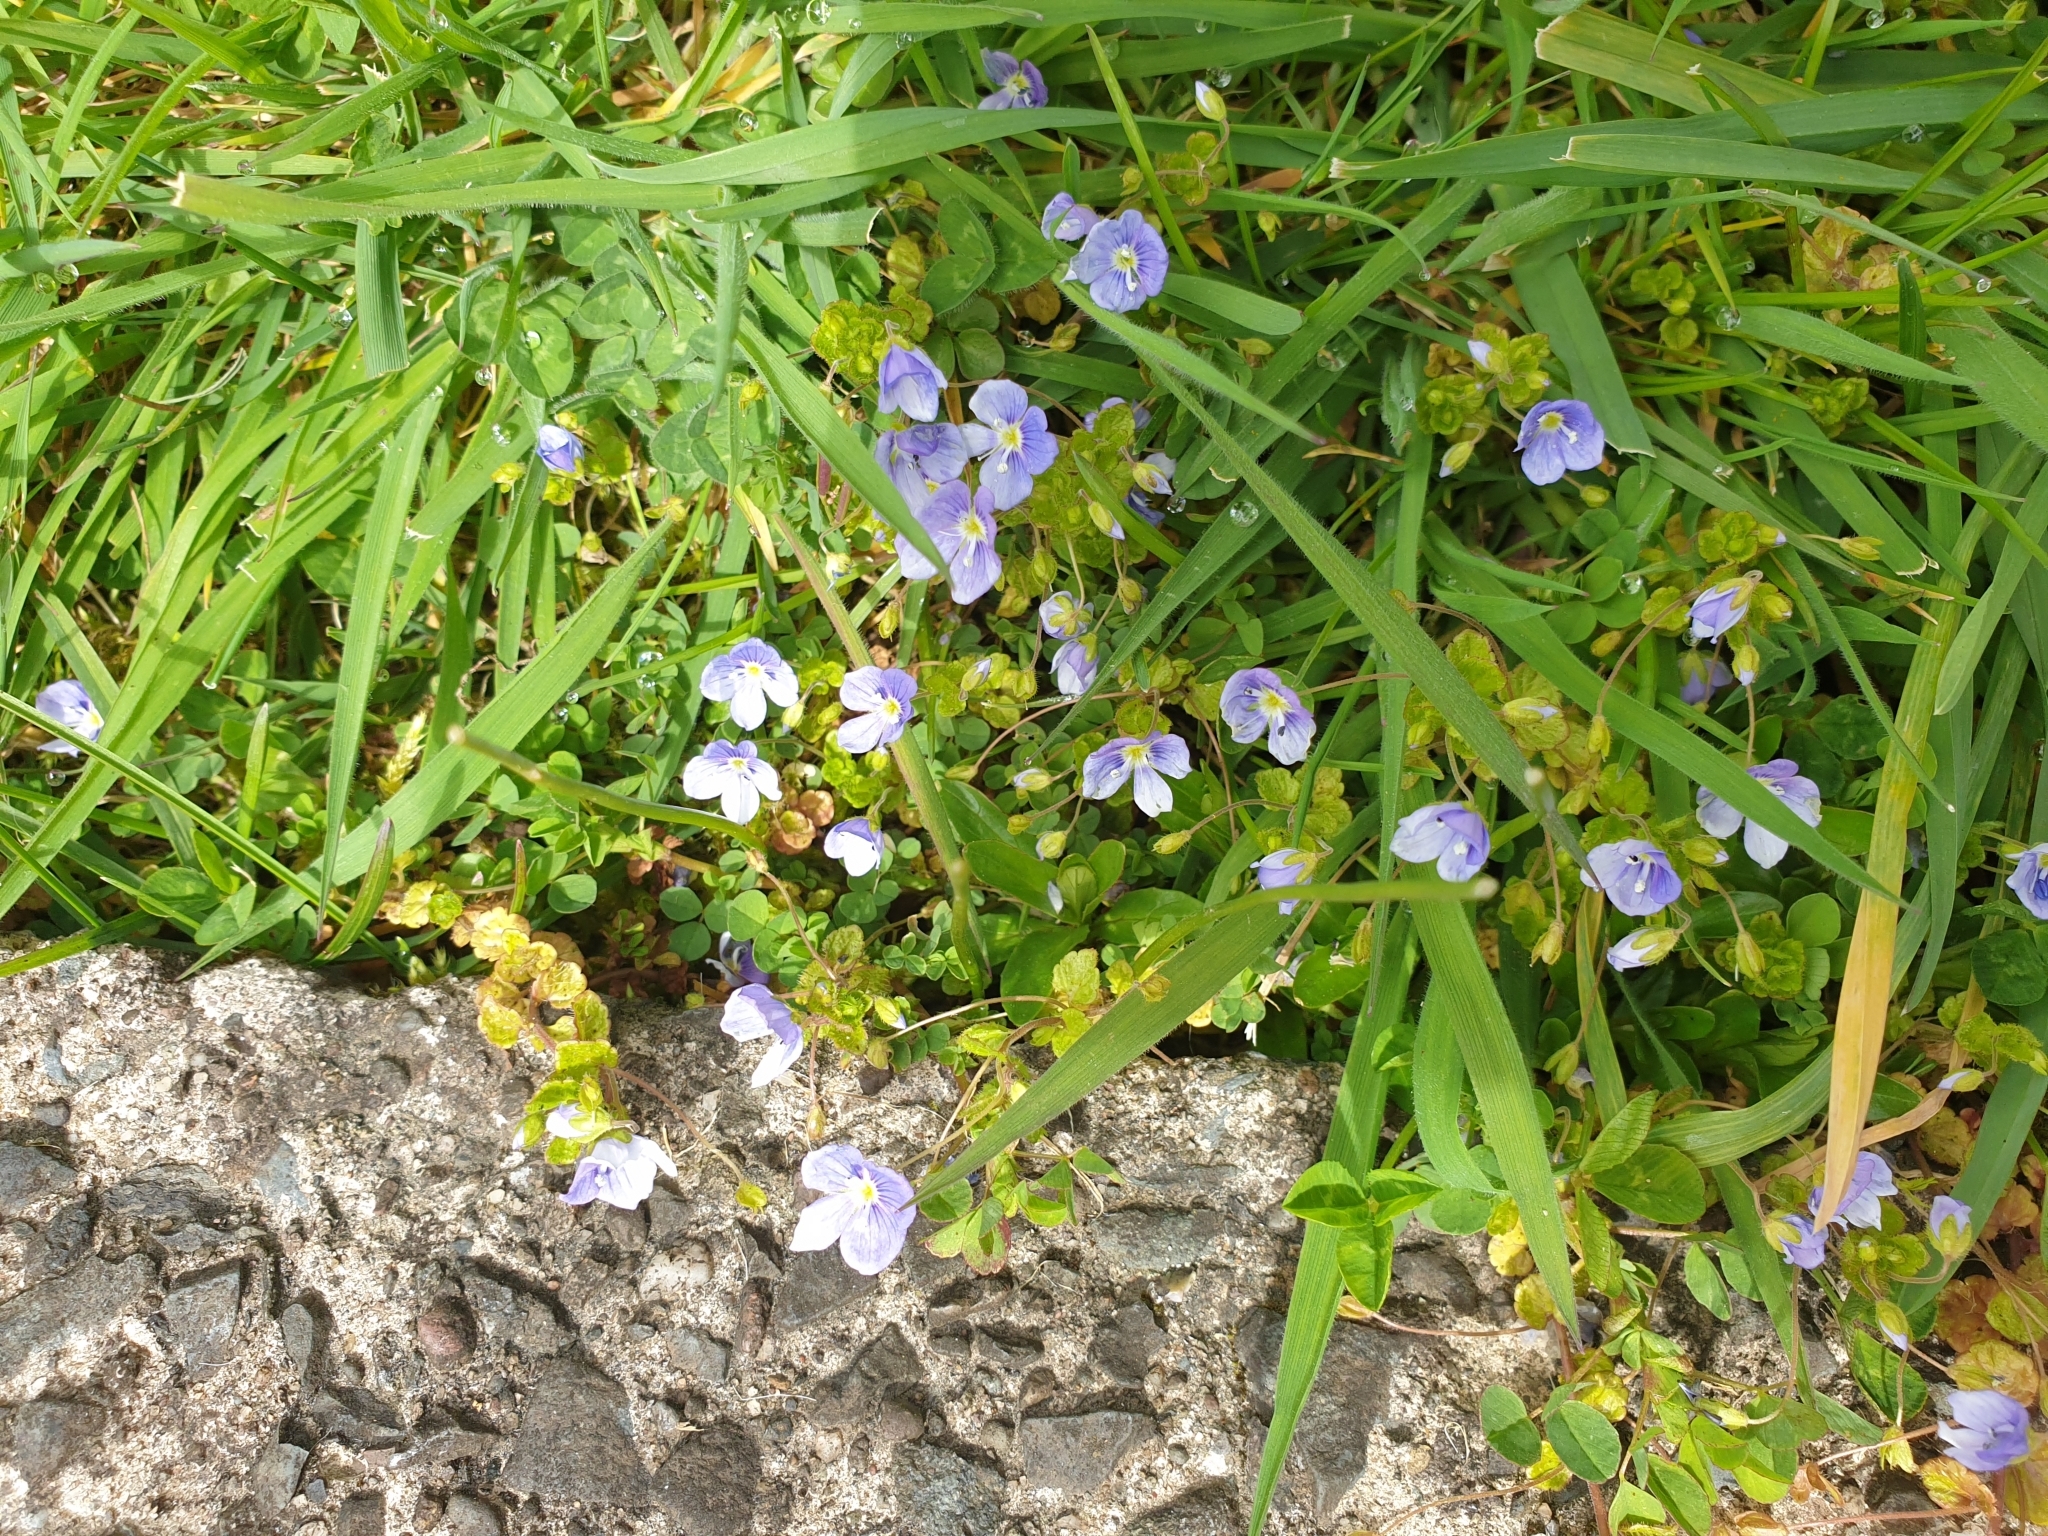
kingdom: Plantae
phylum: Tracheophyta
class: Magnoliopsida
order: Lamiales
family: Plantaginaceae
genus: Veronica
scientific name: Veronica filiformis
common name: Slender speedwell
